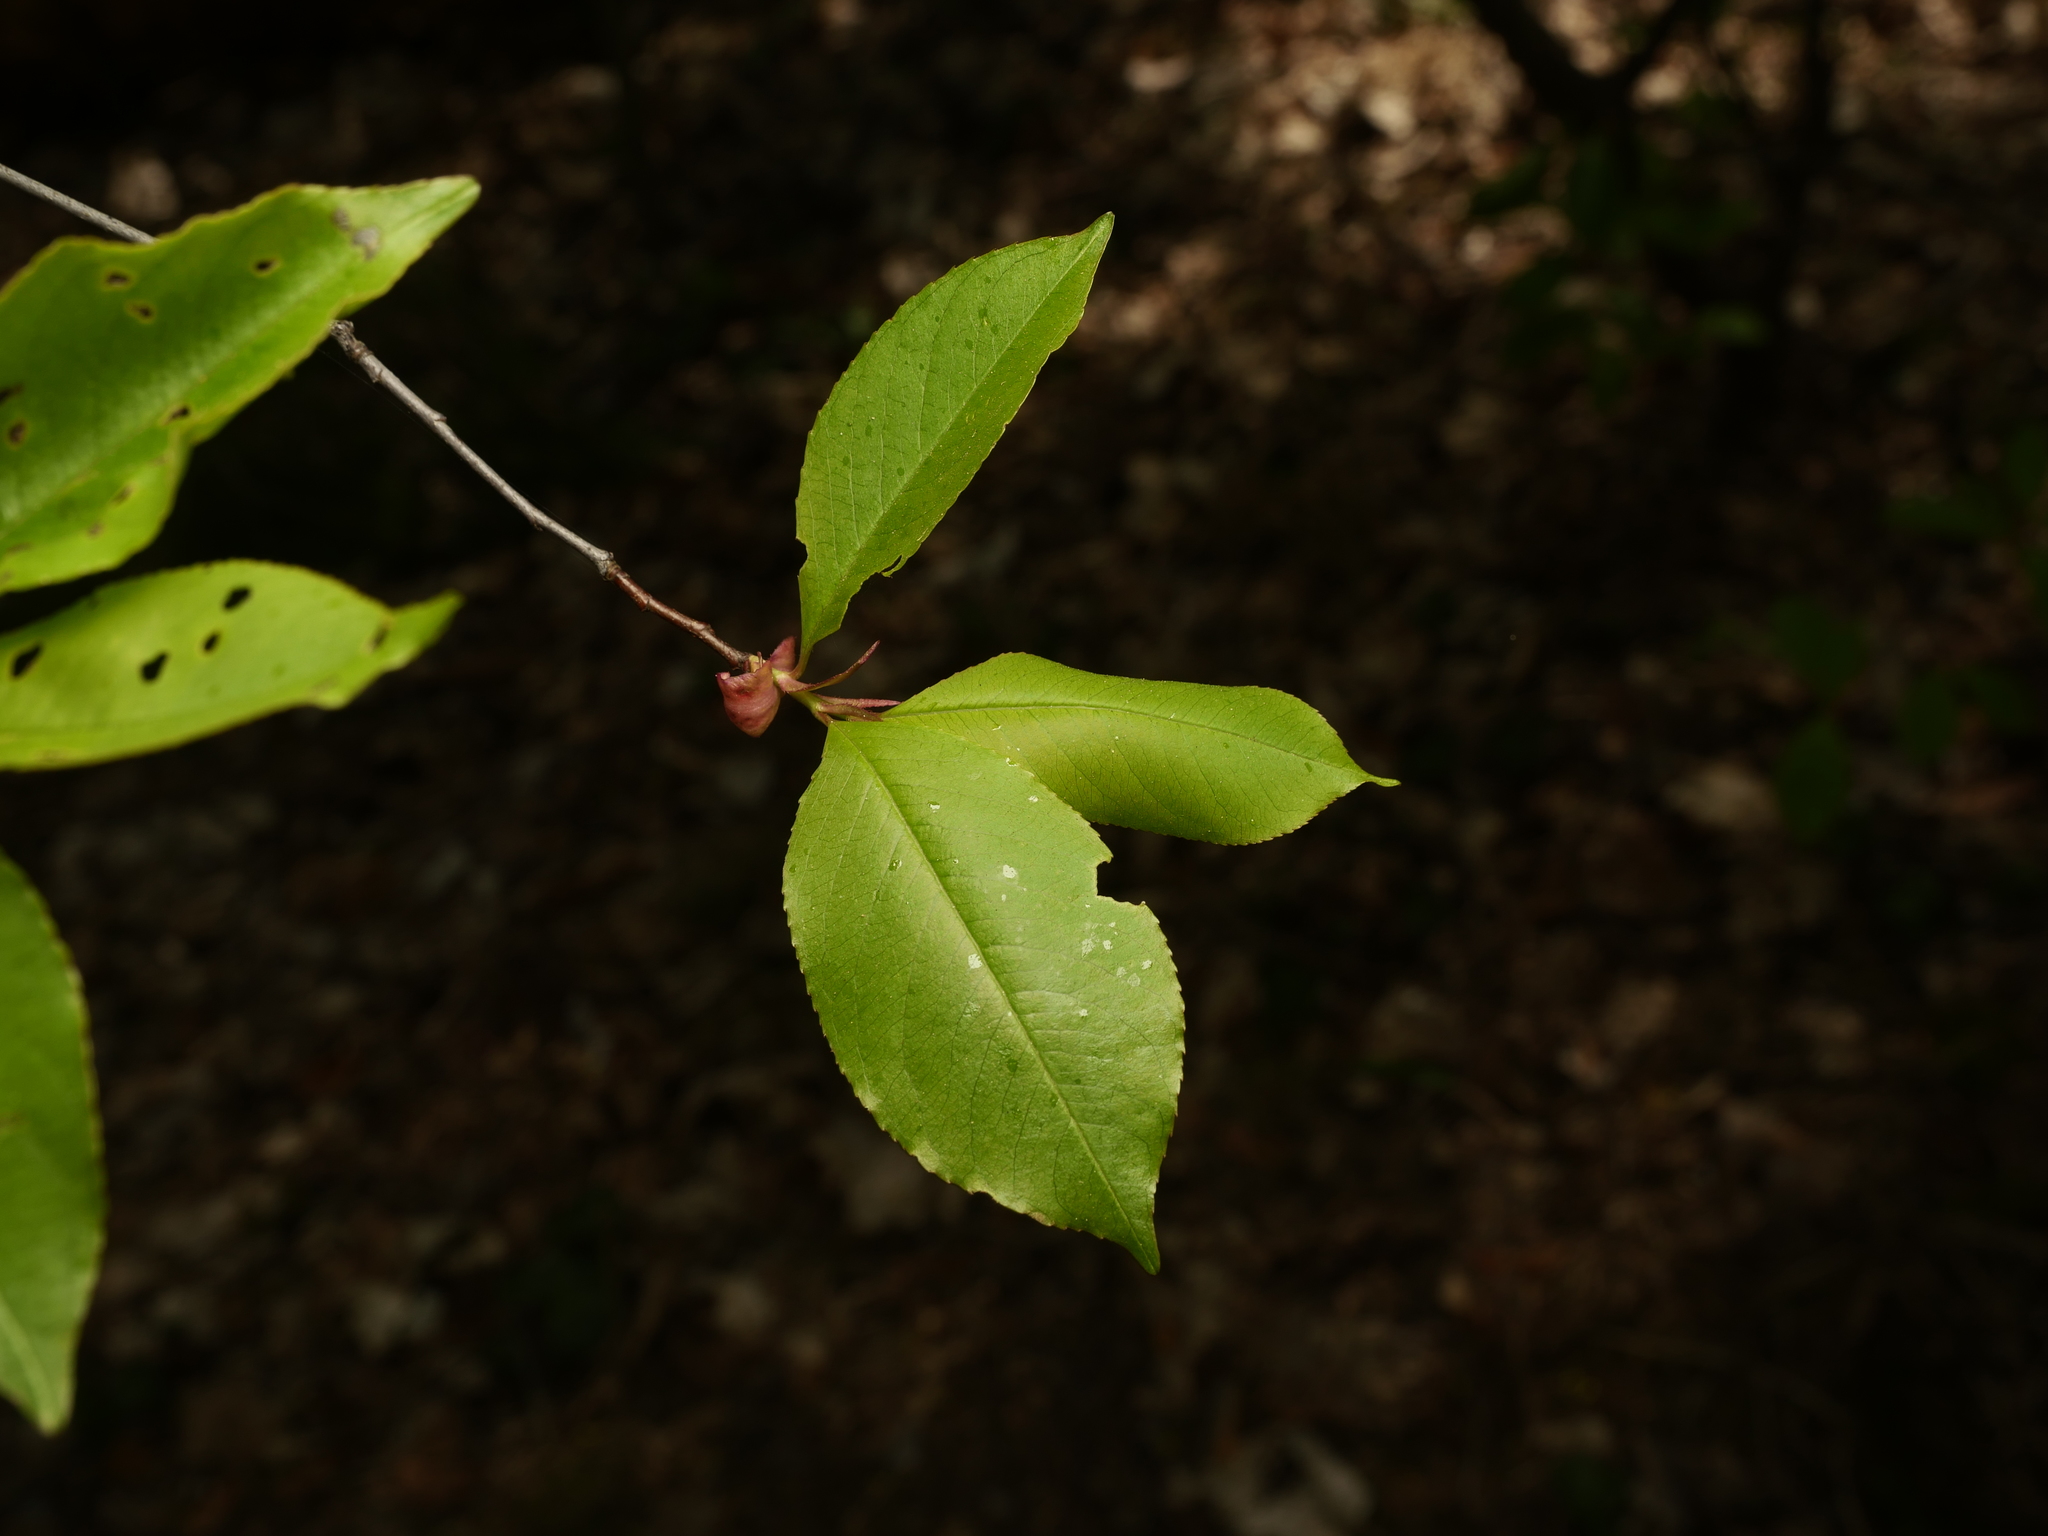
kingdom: Plantae
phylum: Tracheophyta
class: Magnoliopsida
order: Rosales
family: Rosaceae
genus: Prunus
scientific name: Prunus serotina
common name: Black cherry
